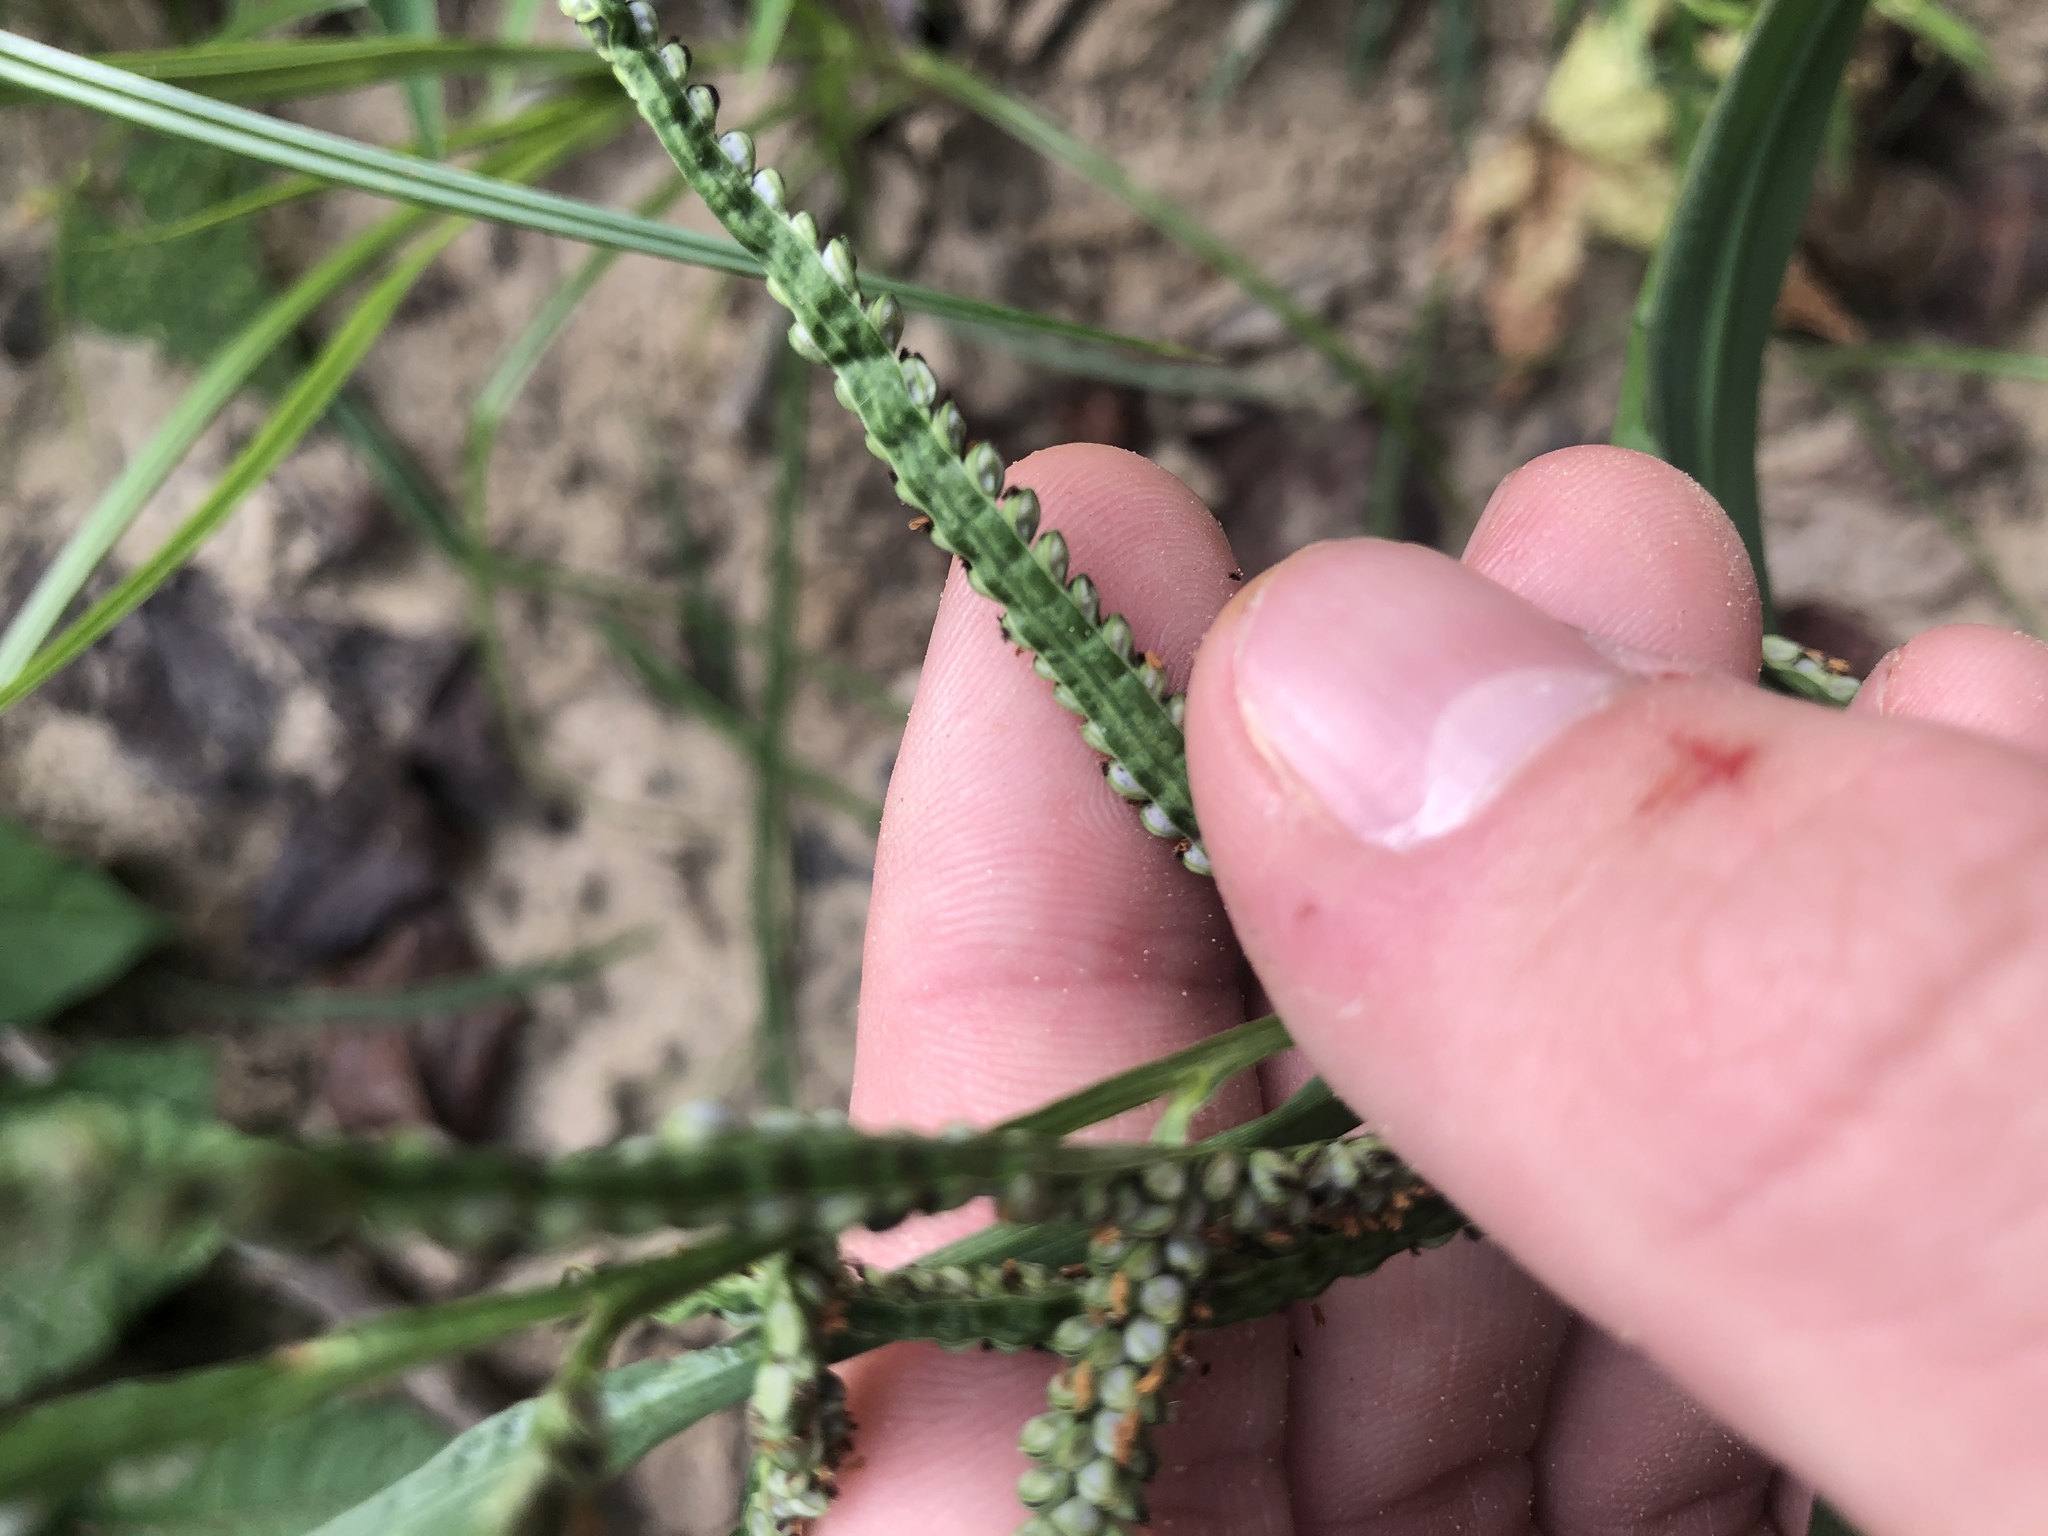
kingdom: Plantae
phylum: Tracheophyta
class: Liliopsida
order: Poales
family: Poaceae
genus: Paspalum
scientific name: Paspalum scrobiculatum
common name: Kodo millet
